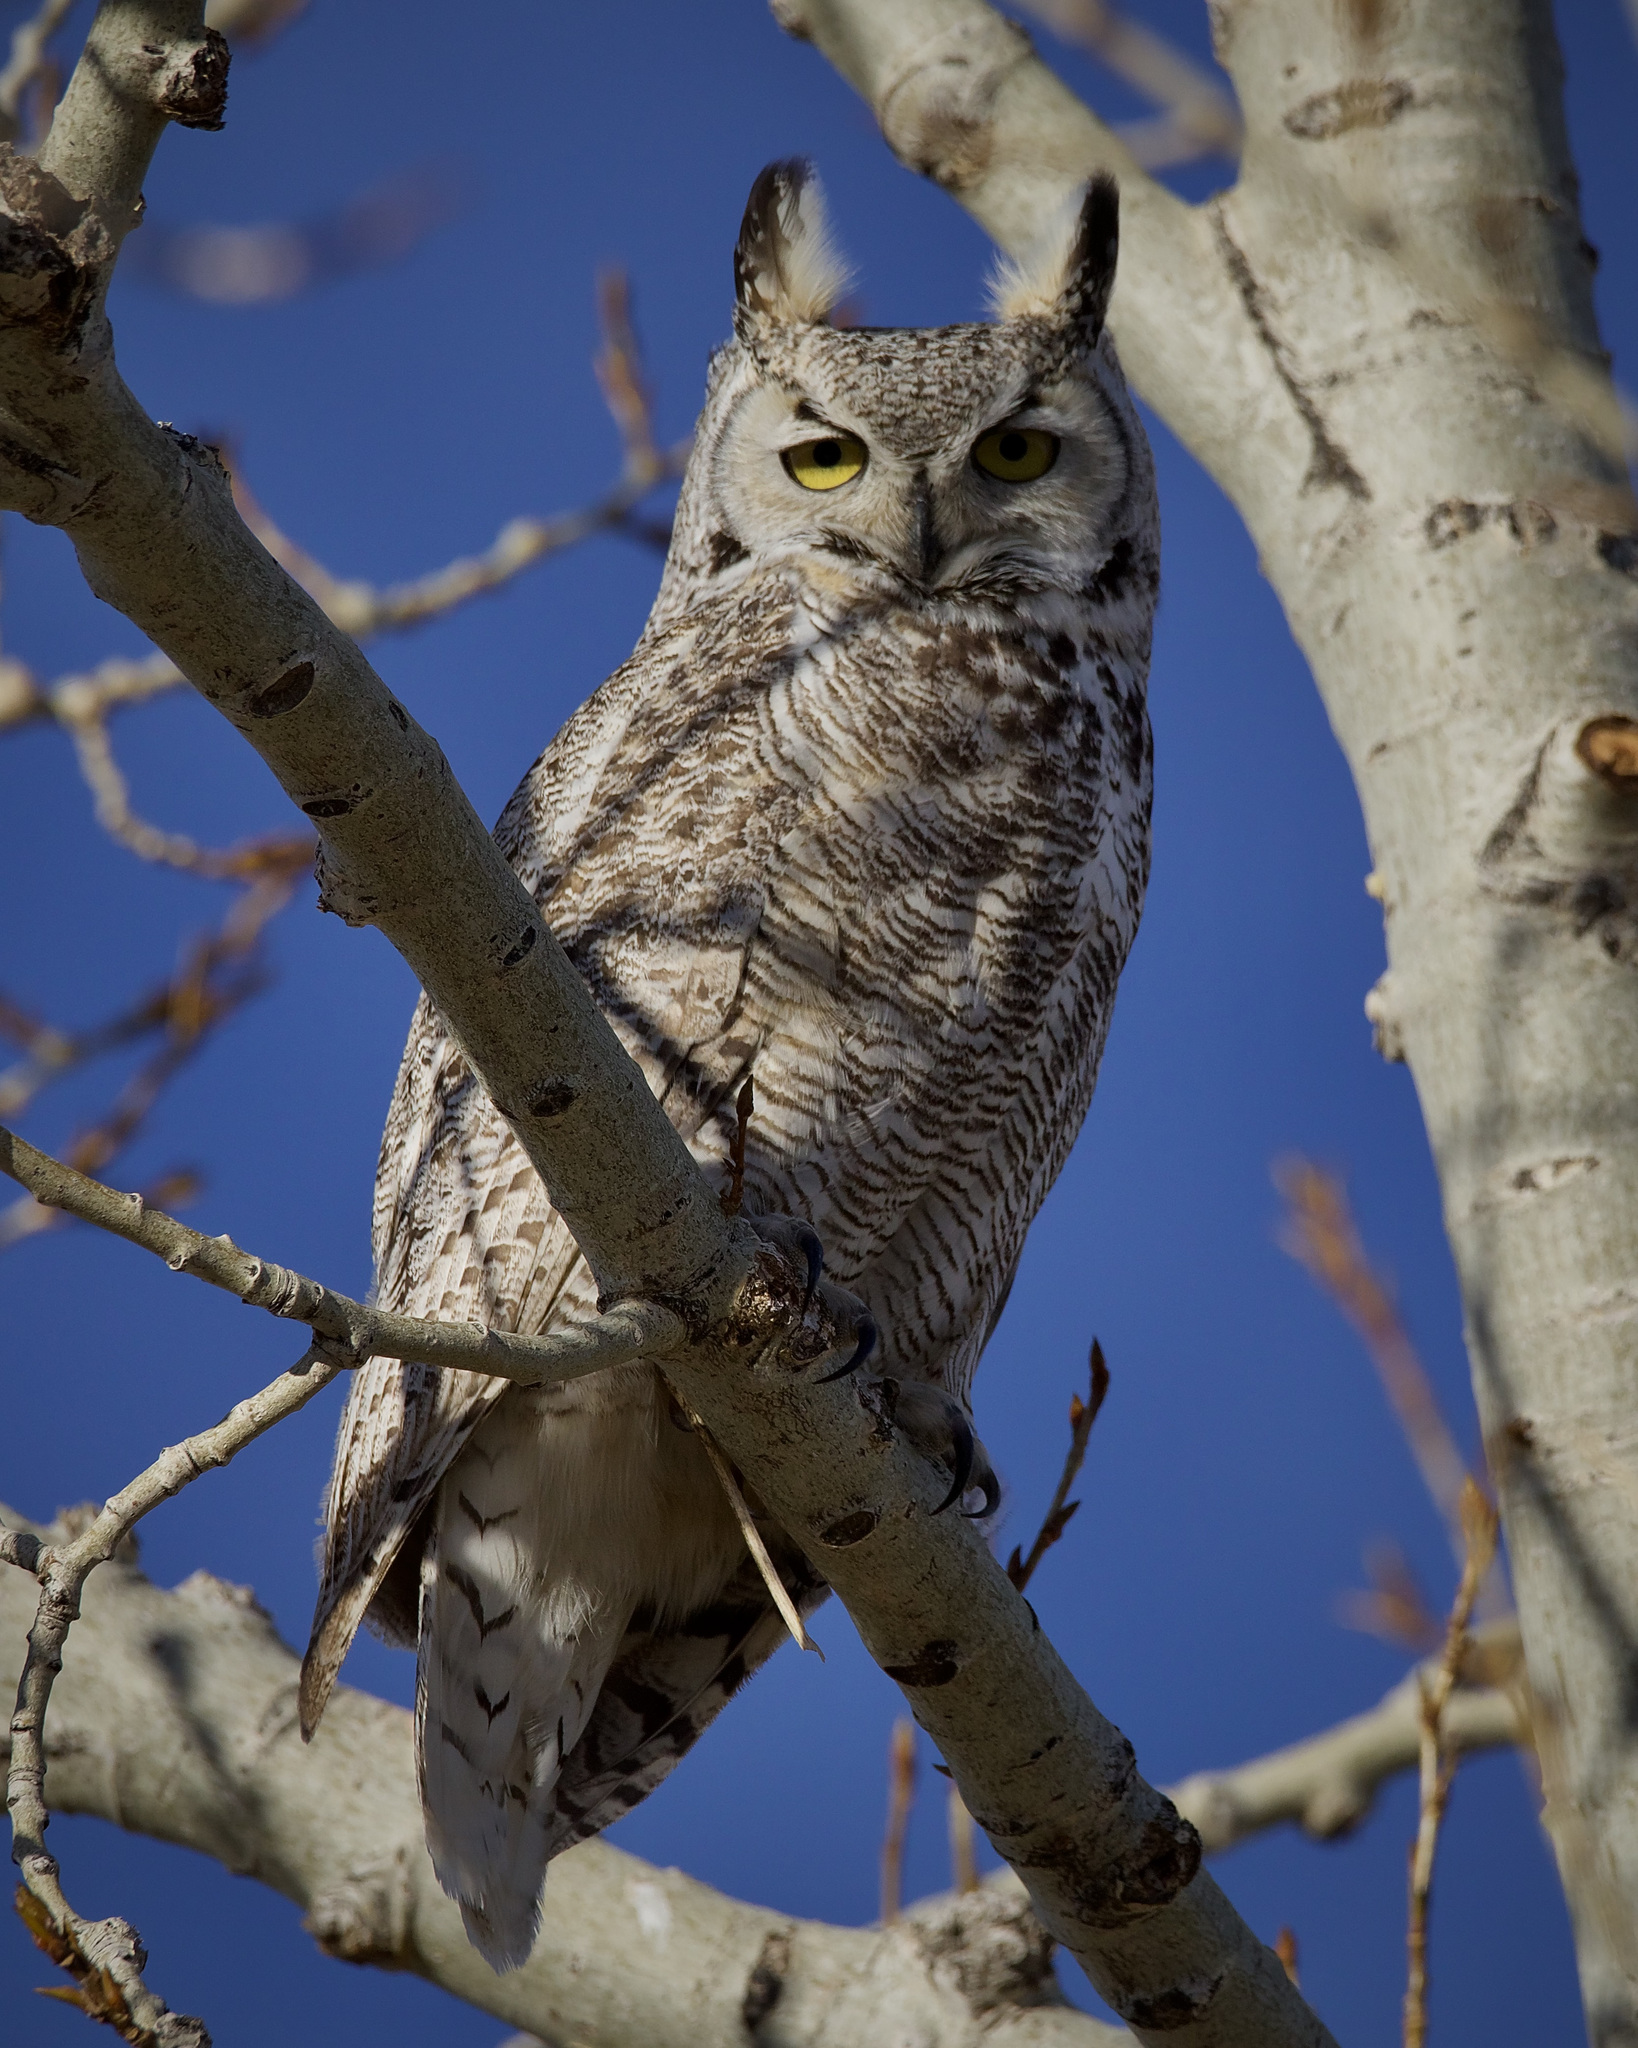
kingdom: Animalia
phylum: Chordata
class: Aves
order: Strigiformes
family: Strigidae
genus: Bubo
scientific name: Bubo virginianus
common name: Great horned owl
